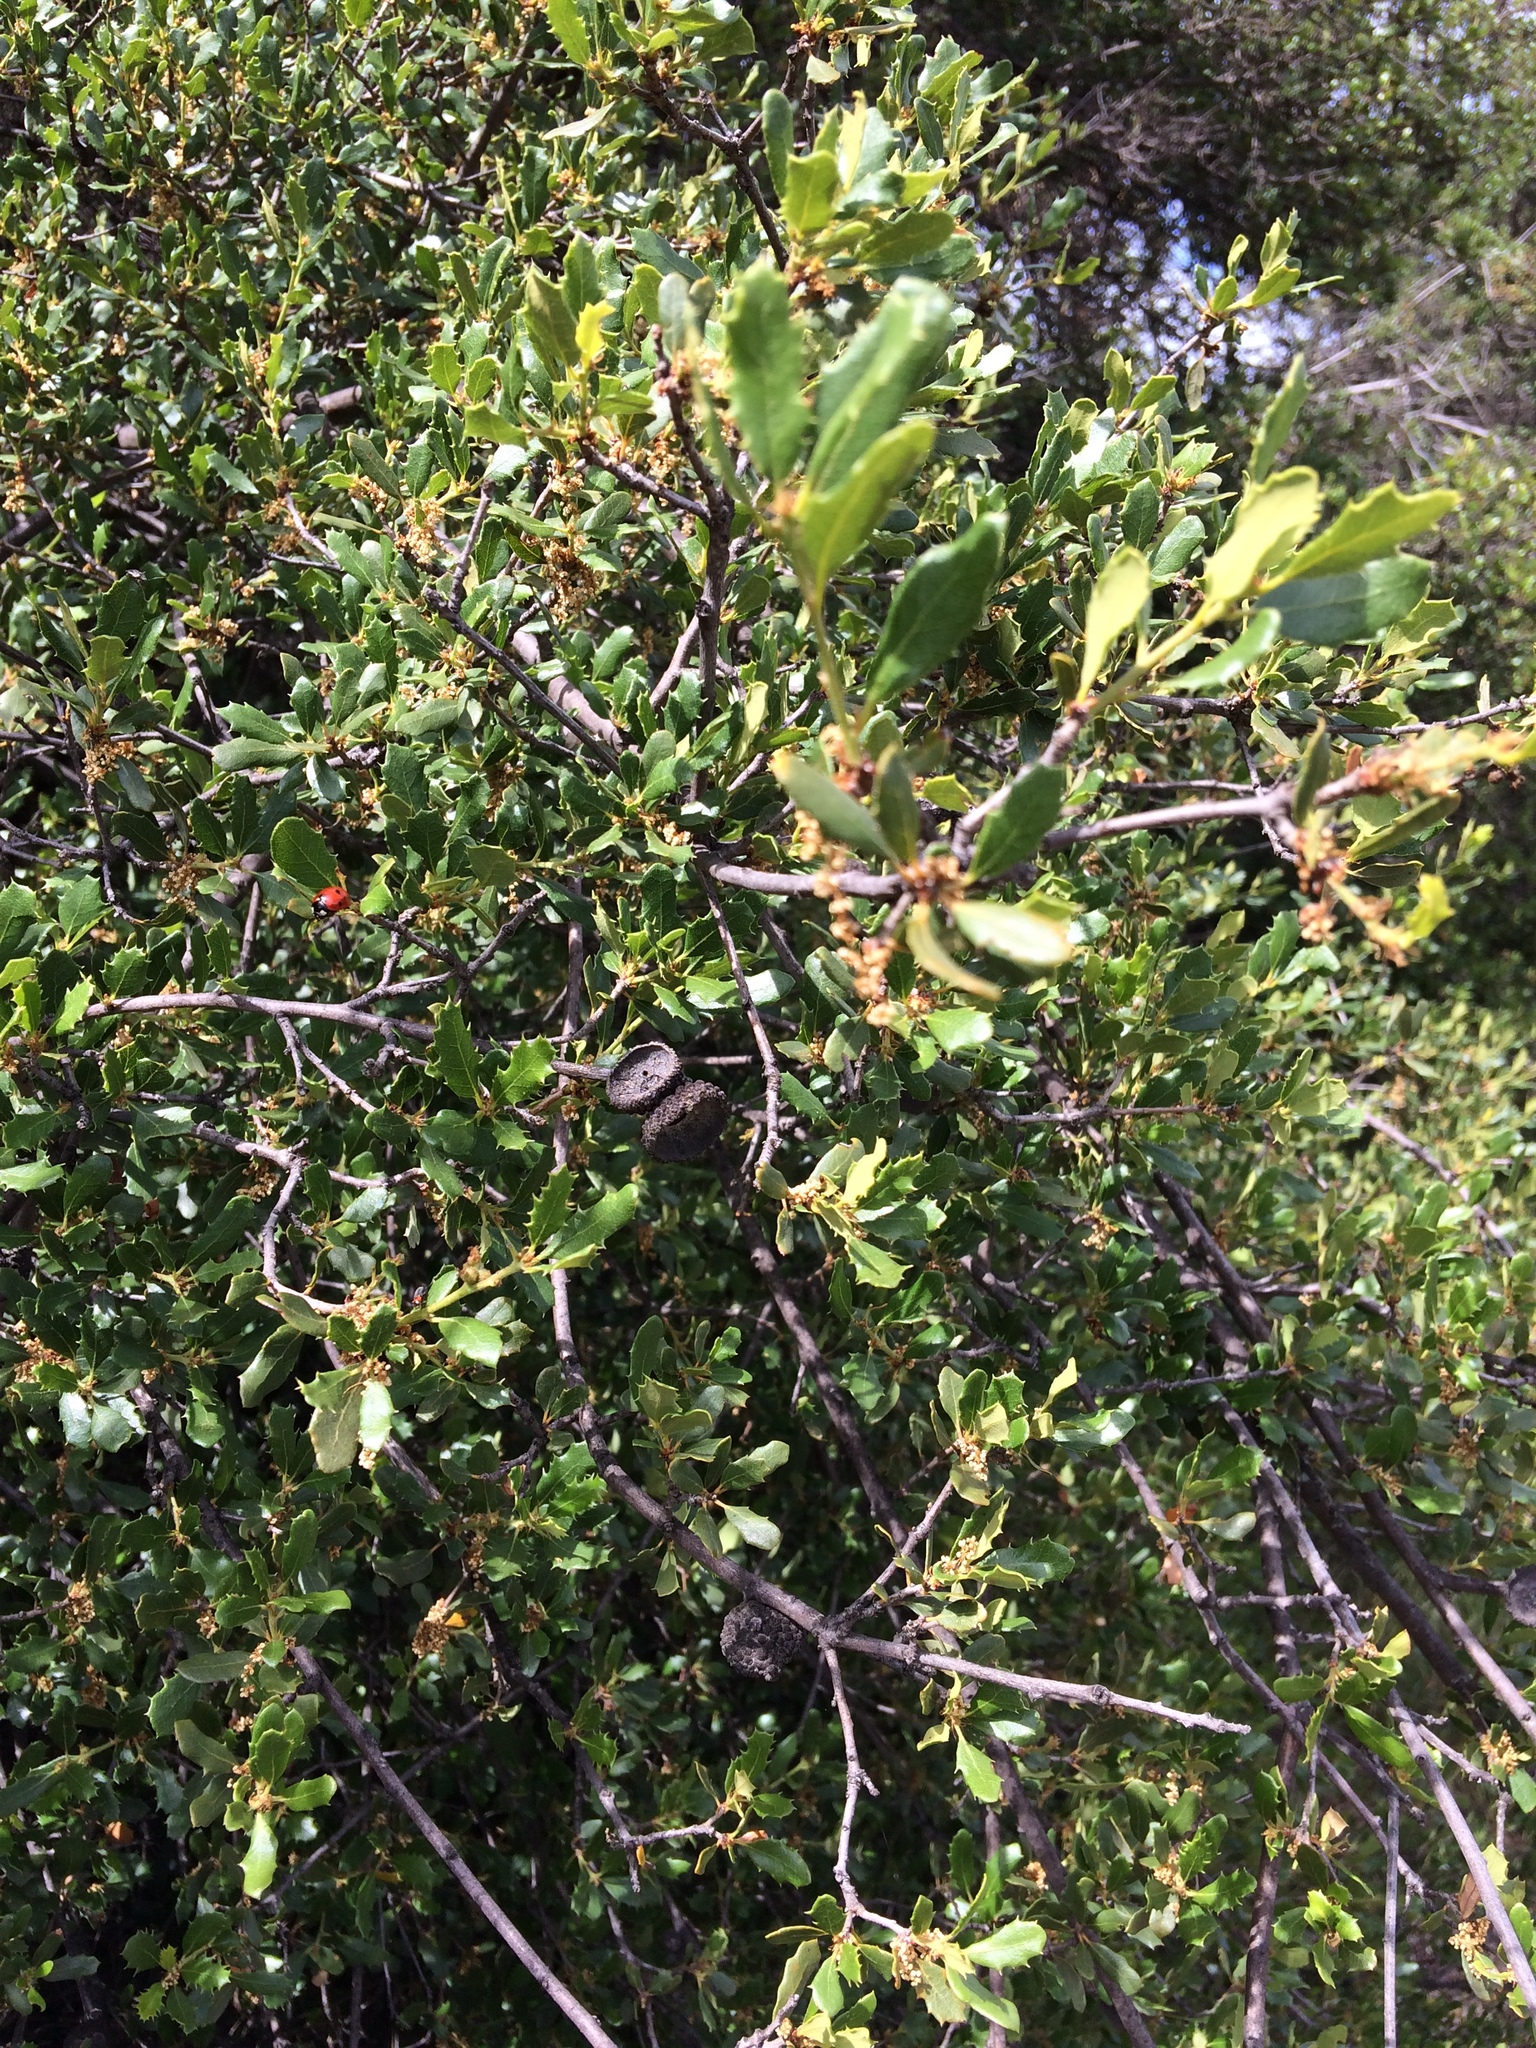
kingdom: Plantae
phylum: Tracheophyta
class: Magnoliopsida
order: Fagales
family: Fagaceae
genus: Quercus
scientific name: Quercus berberidifolia
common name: California scrub oak
